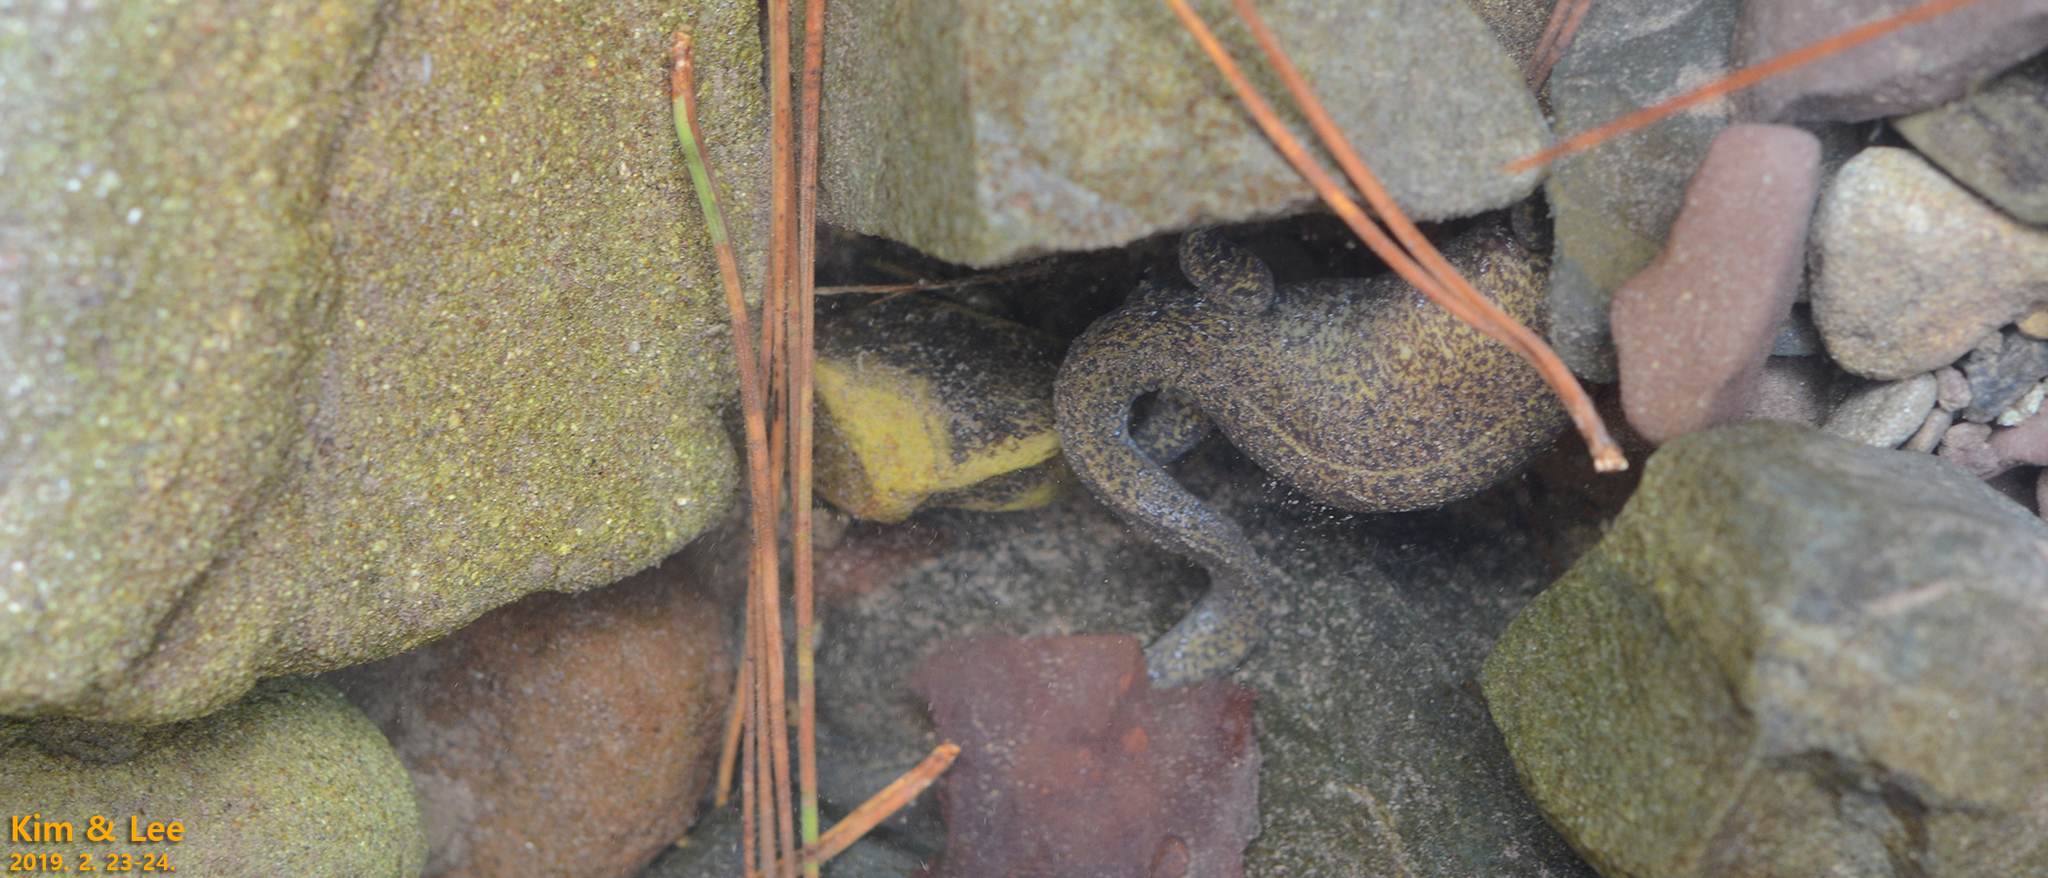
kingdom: Animalia
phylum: Chordata
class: Amphibia
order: Caudata
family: Hynobiidae
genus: Hynobius
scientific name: Hynobius perplicatus
